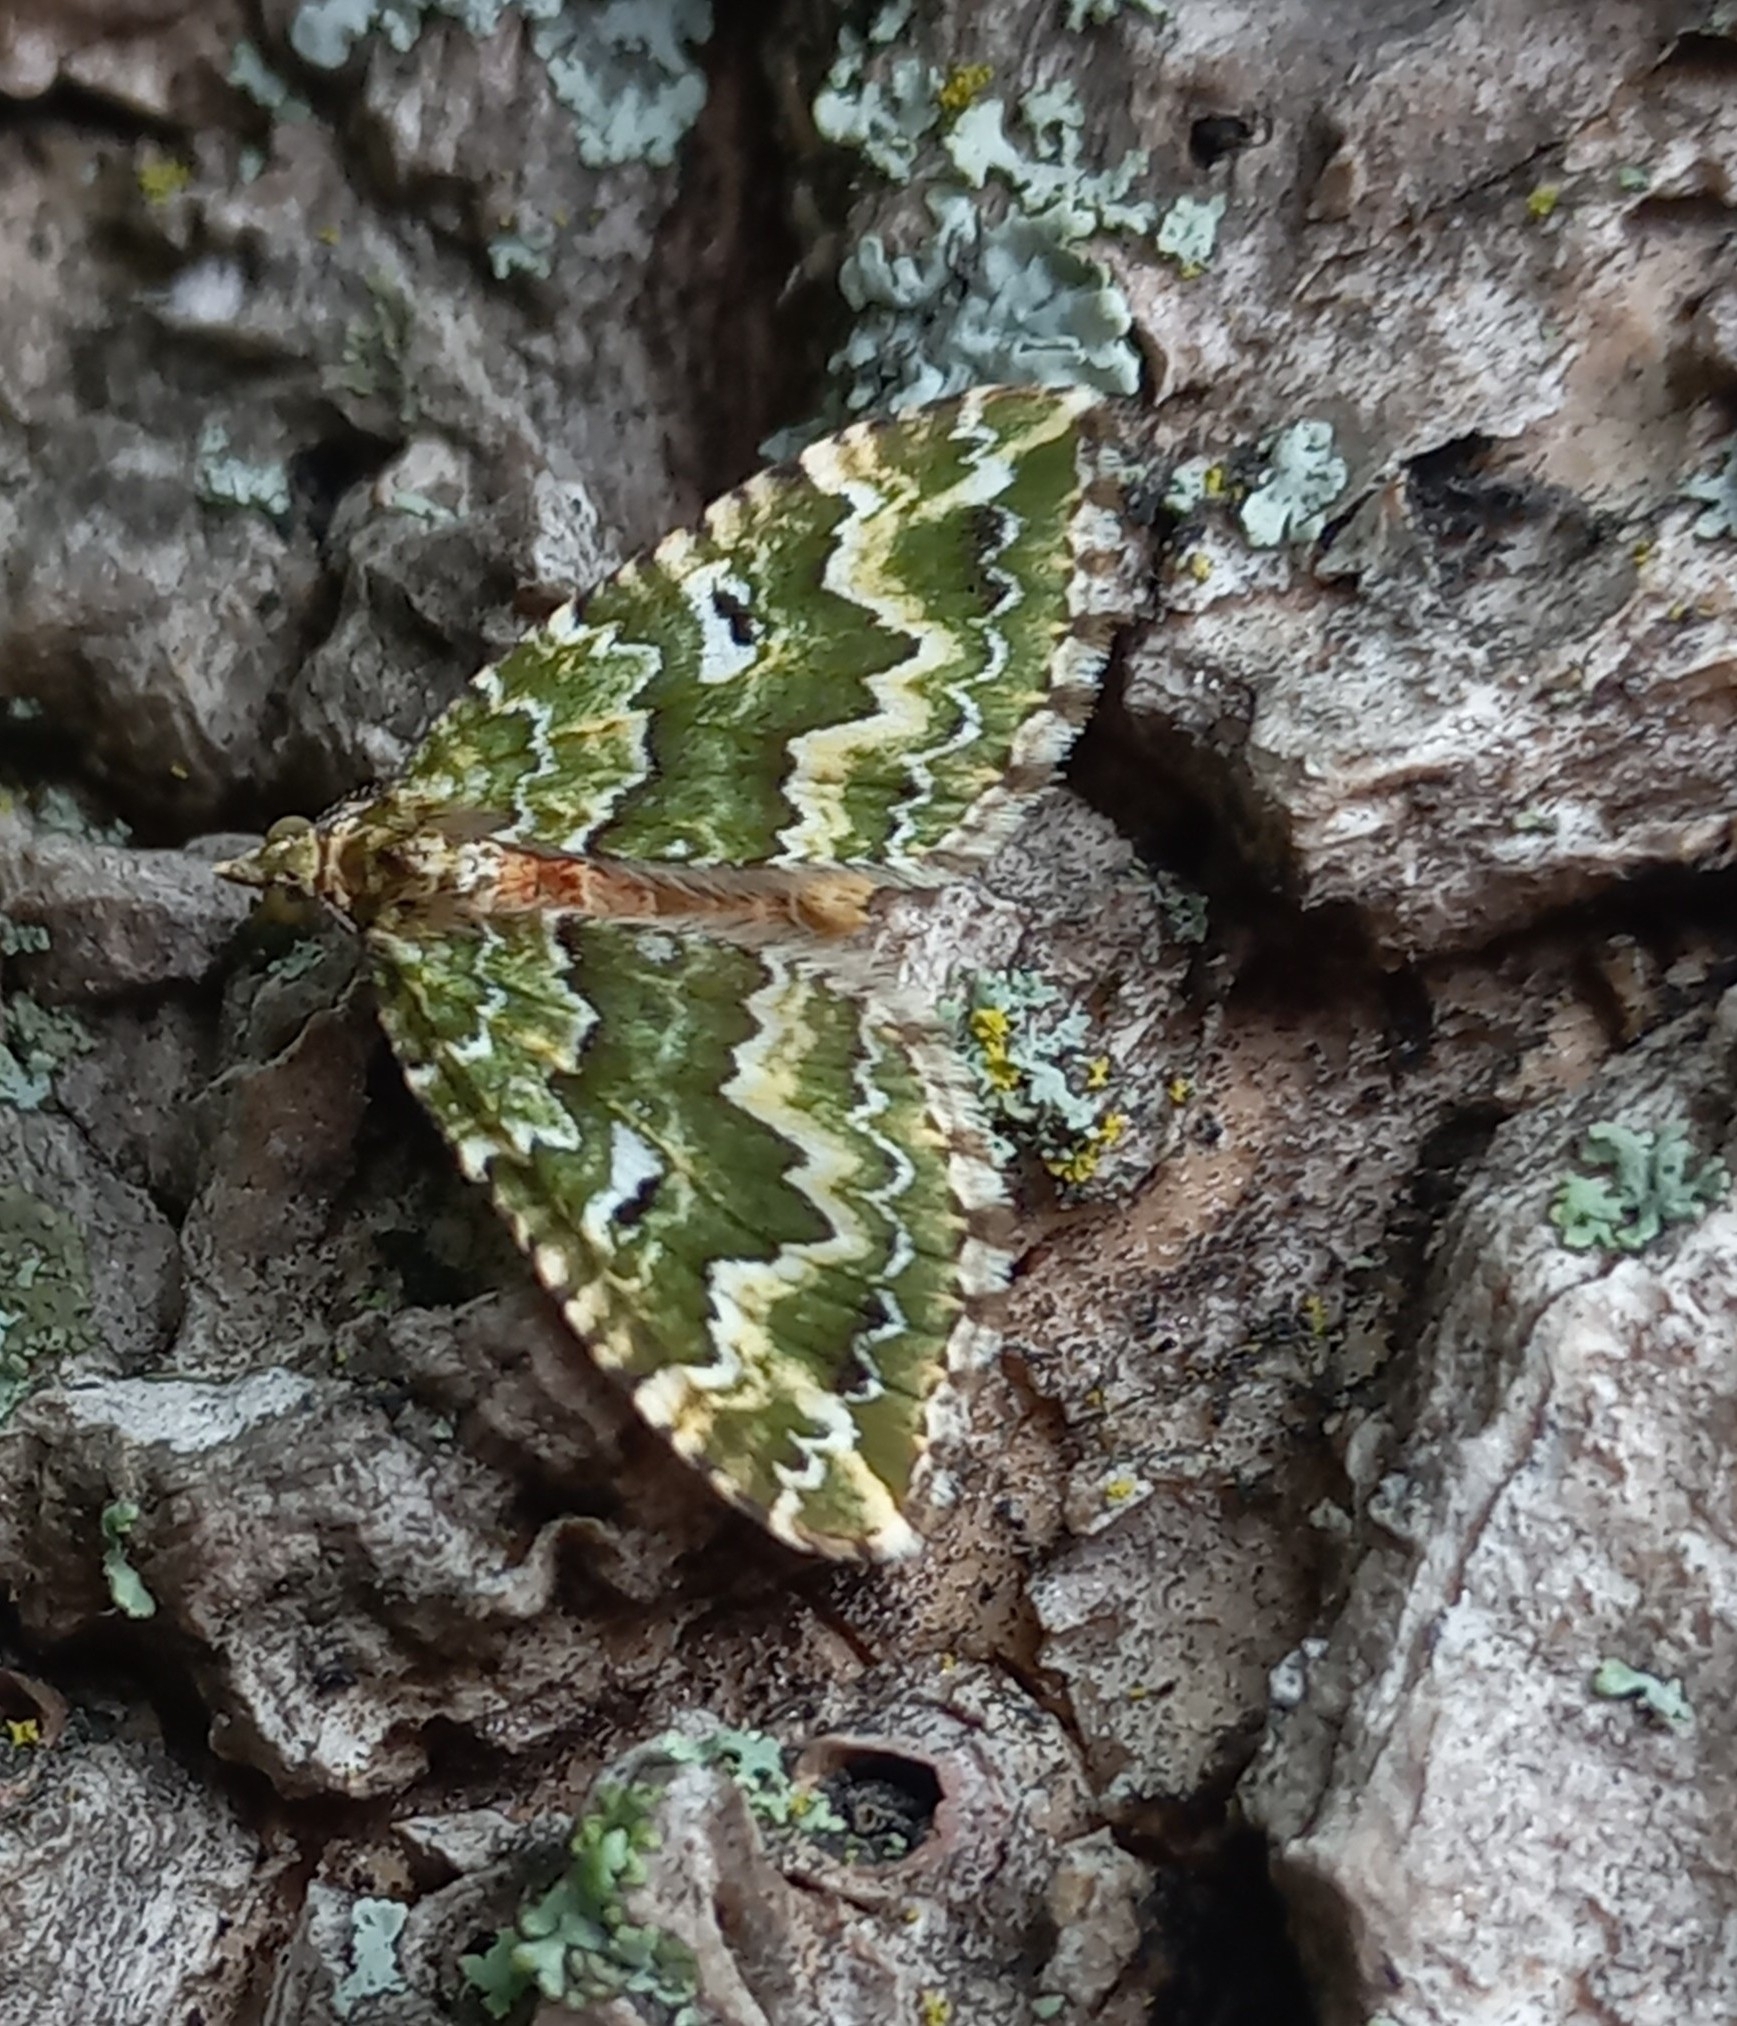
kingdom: Animalia
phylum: Arthropoda
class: Insecta
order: Lepidoptera
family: Geometridae
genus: Asaphodes
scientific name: Asaphodes beata
